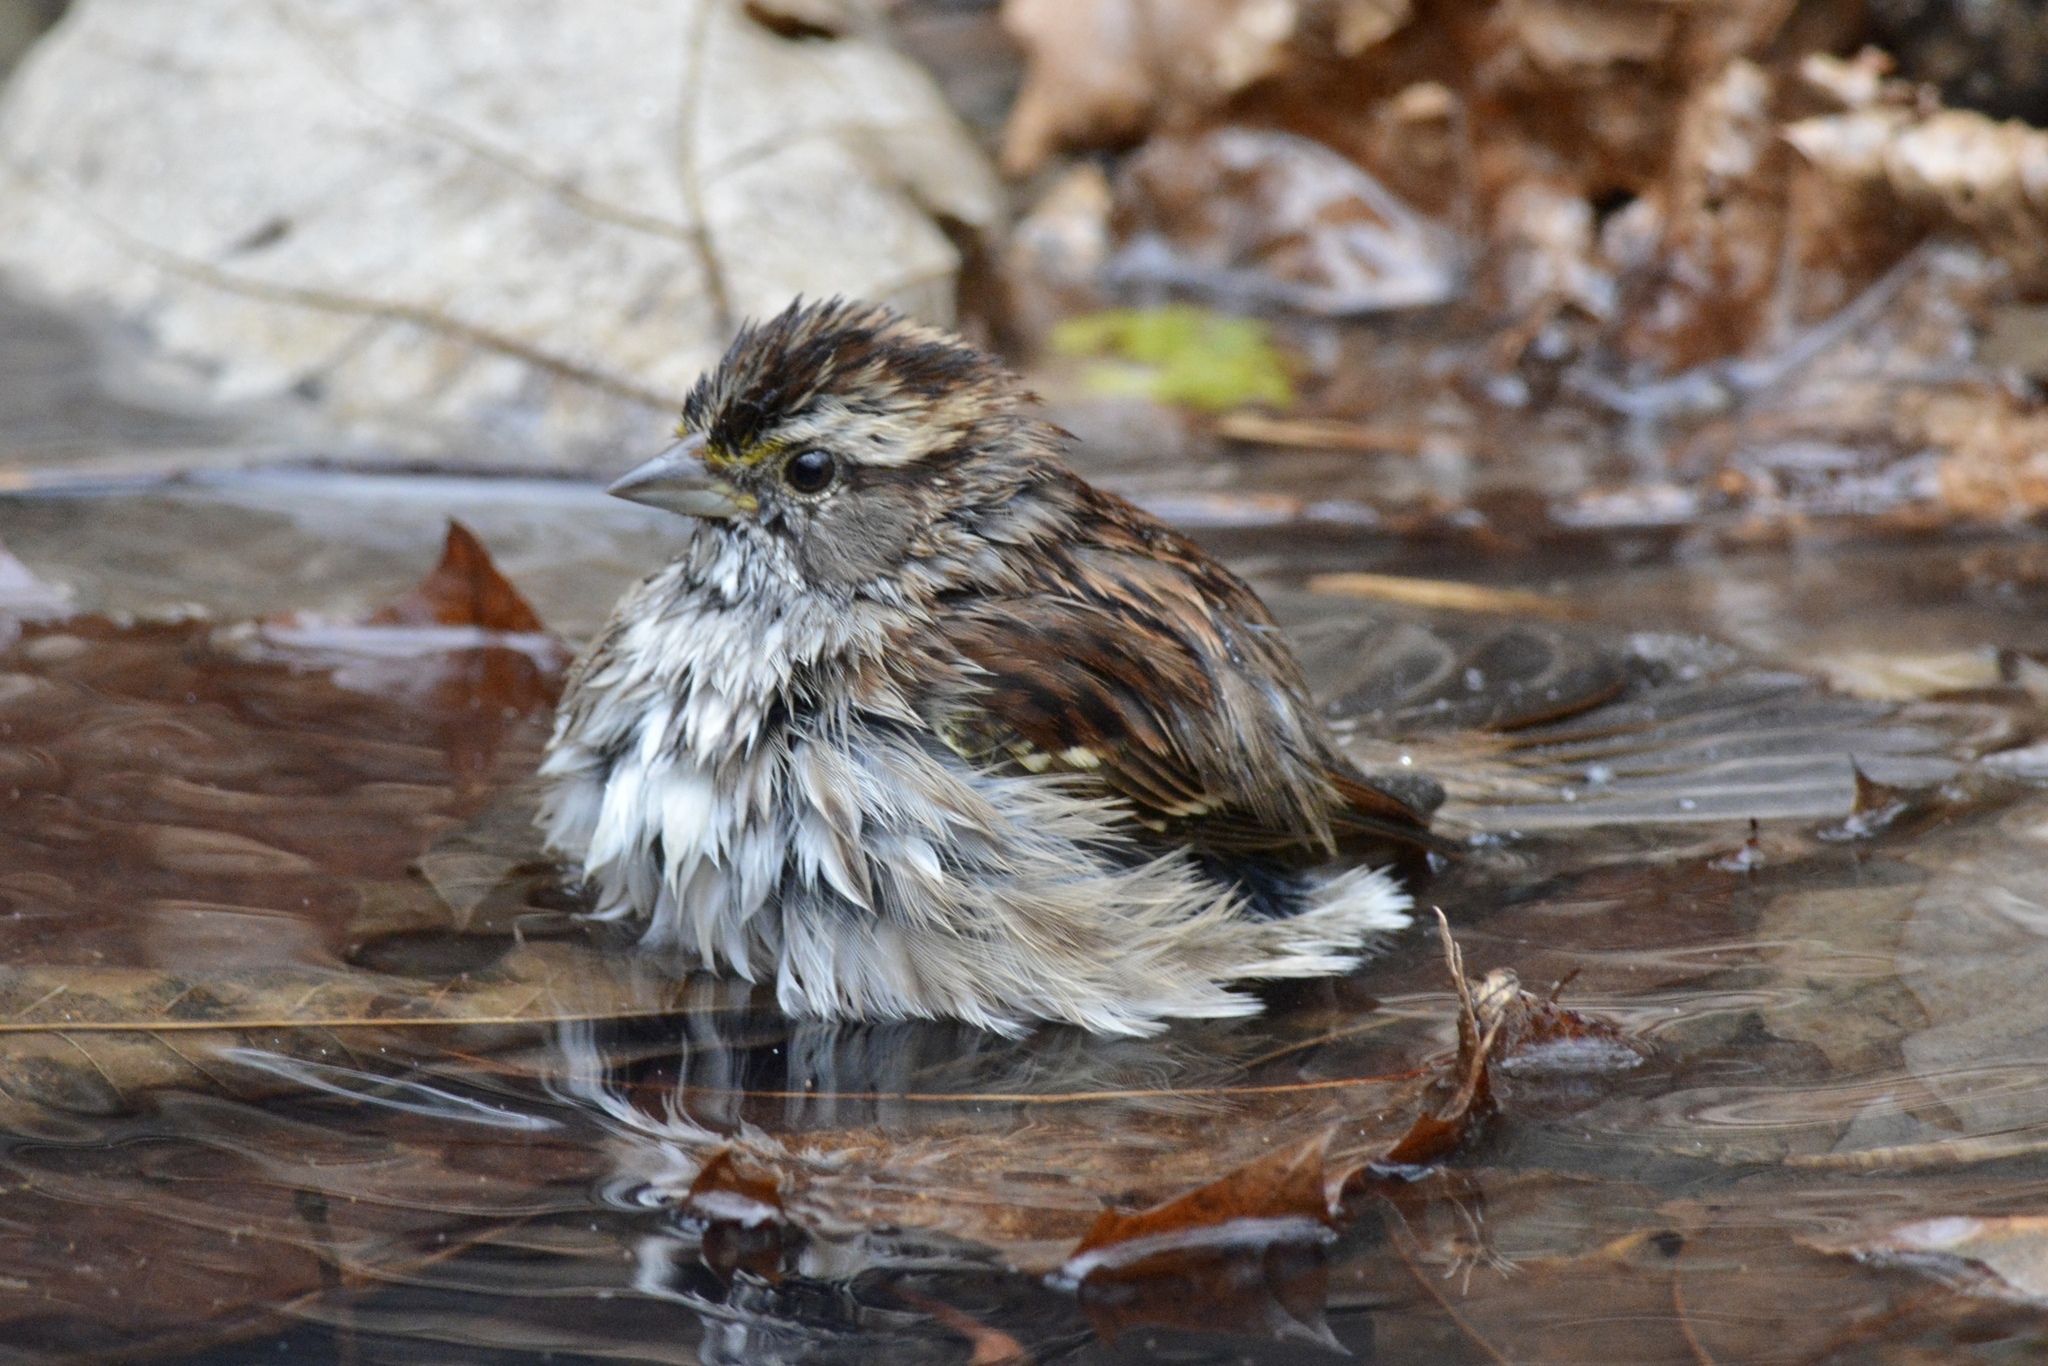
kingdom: Animalia
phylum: Chordata
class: Aves
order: Passeriformes
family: Passerellidae
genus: Zonotrichia
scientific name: Zonotrichia albicollis
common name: White-throated sparrow
